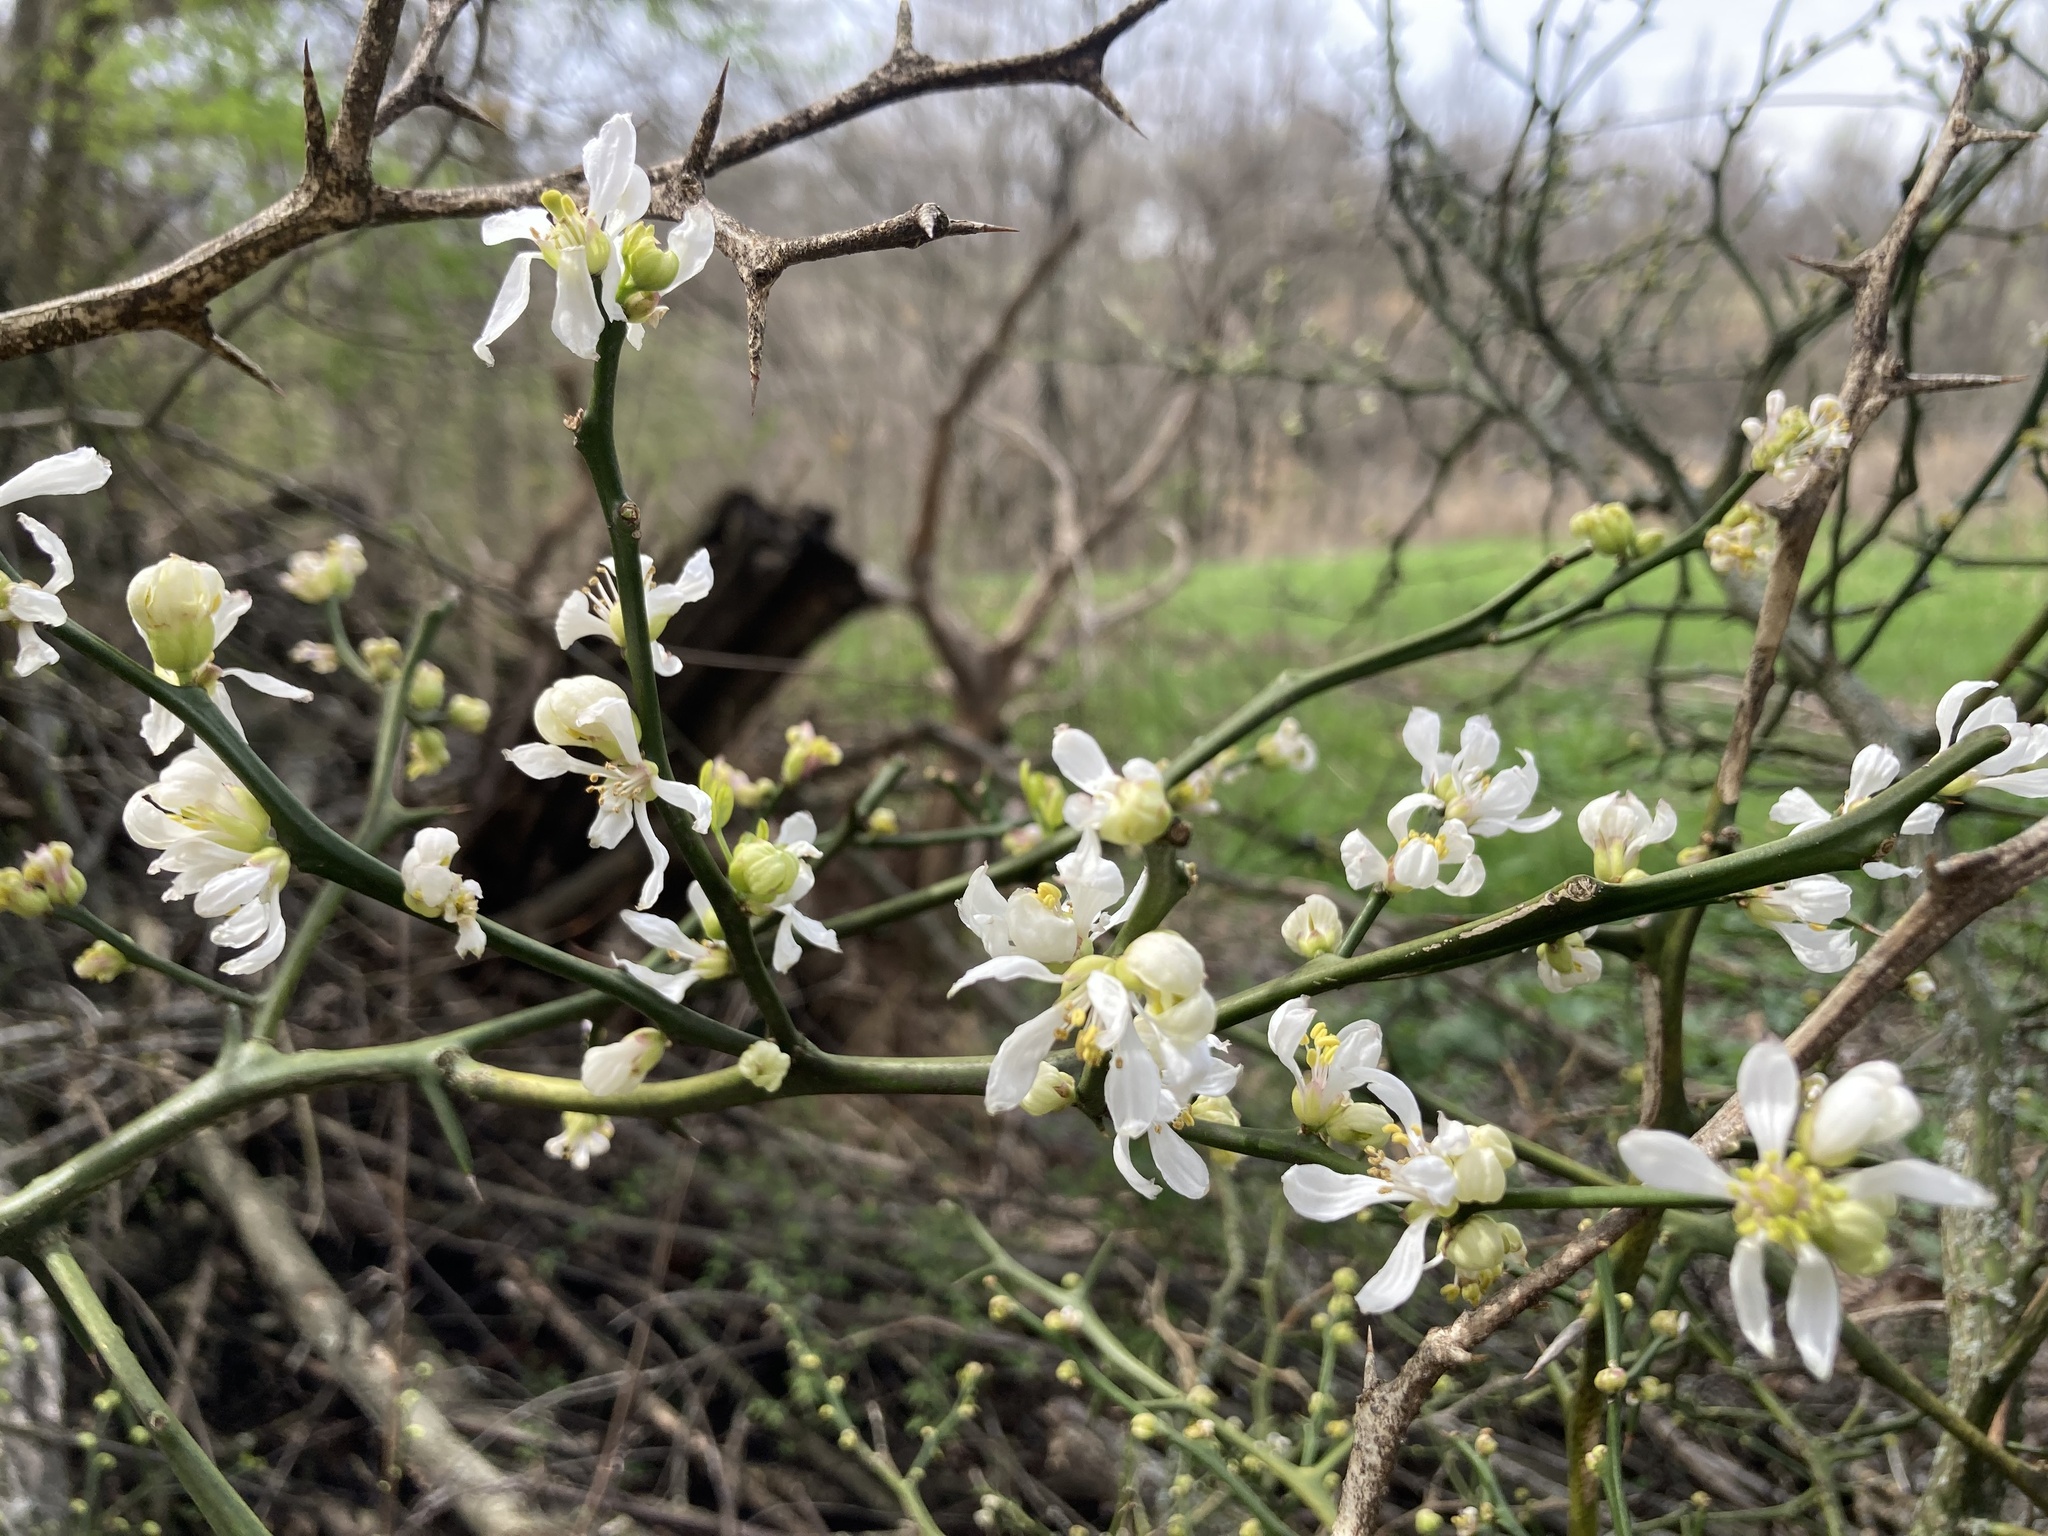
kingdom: Plantae
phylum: Tracheophyta
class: Magnoliopsida
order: Sapindales
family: Rutaceae
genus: Citrus
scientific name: Citrus trifoliata
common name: Japanese bitter-orange
